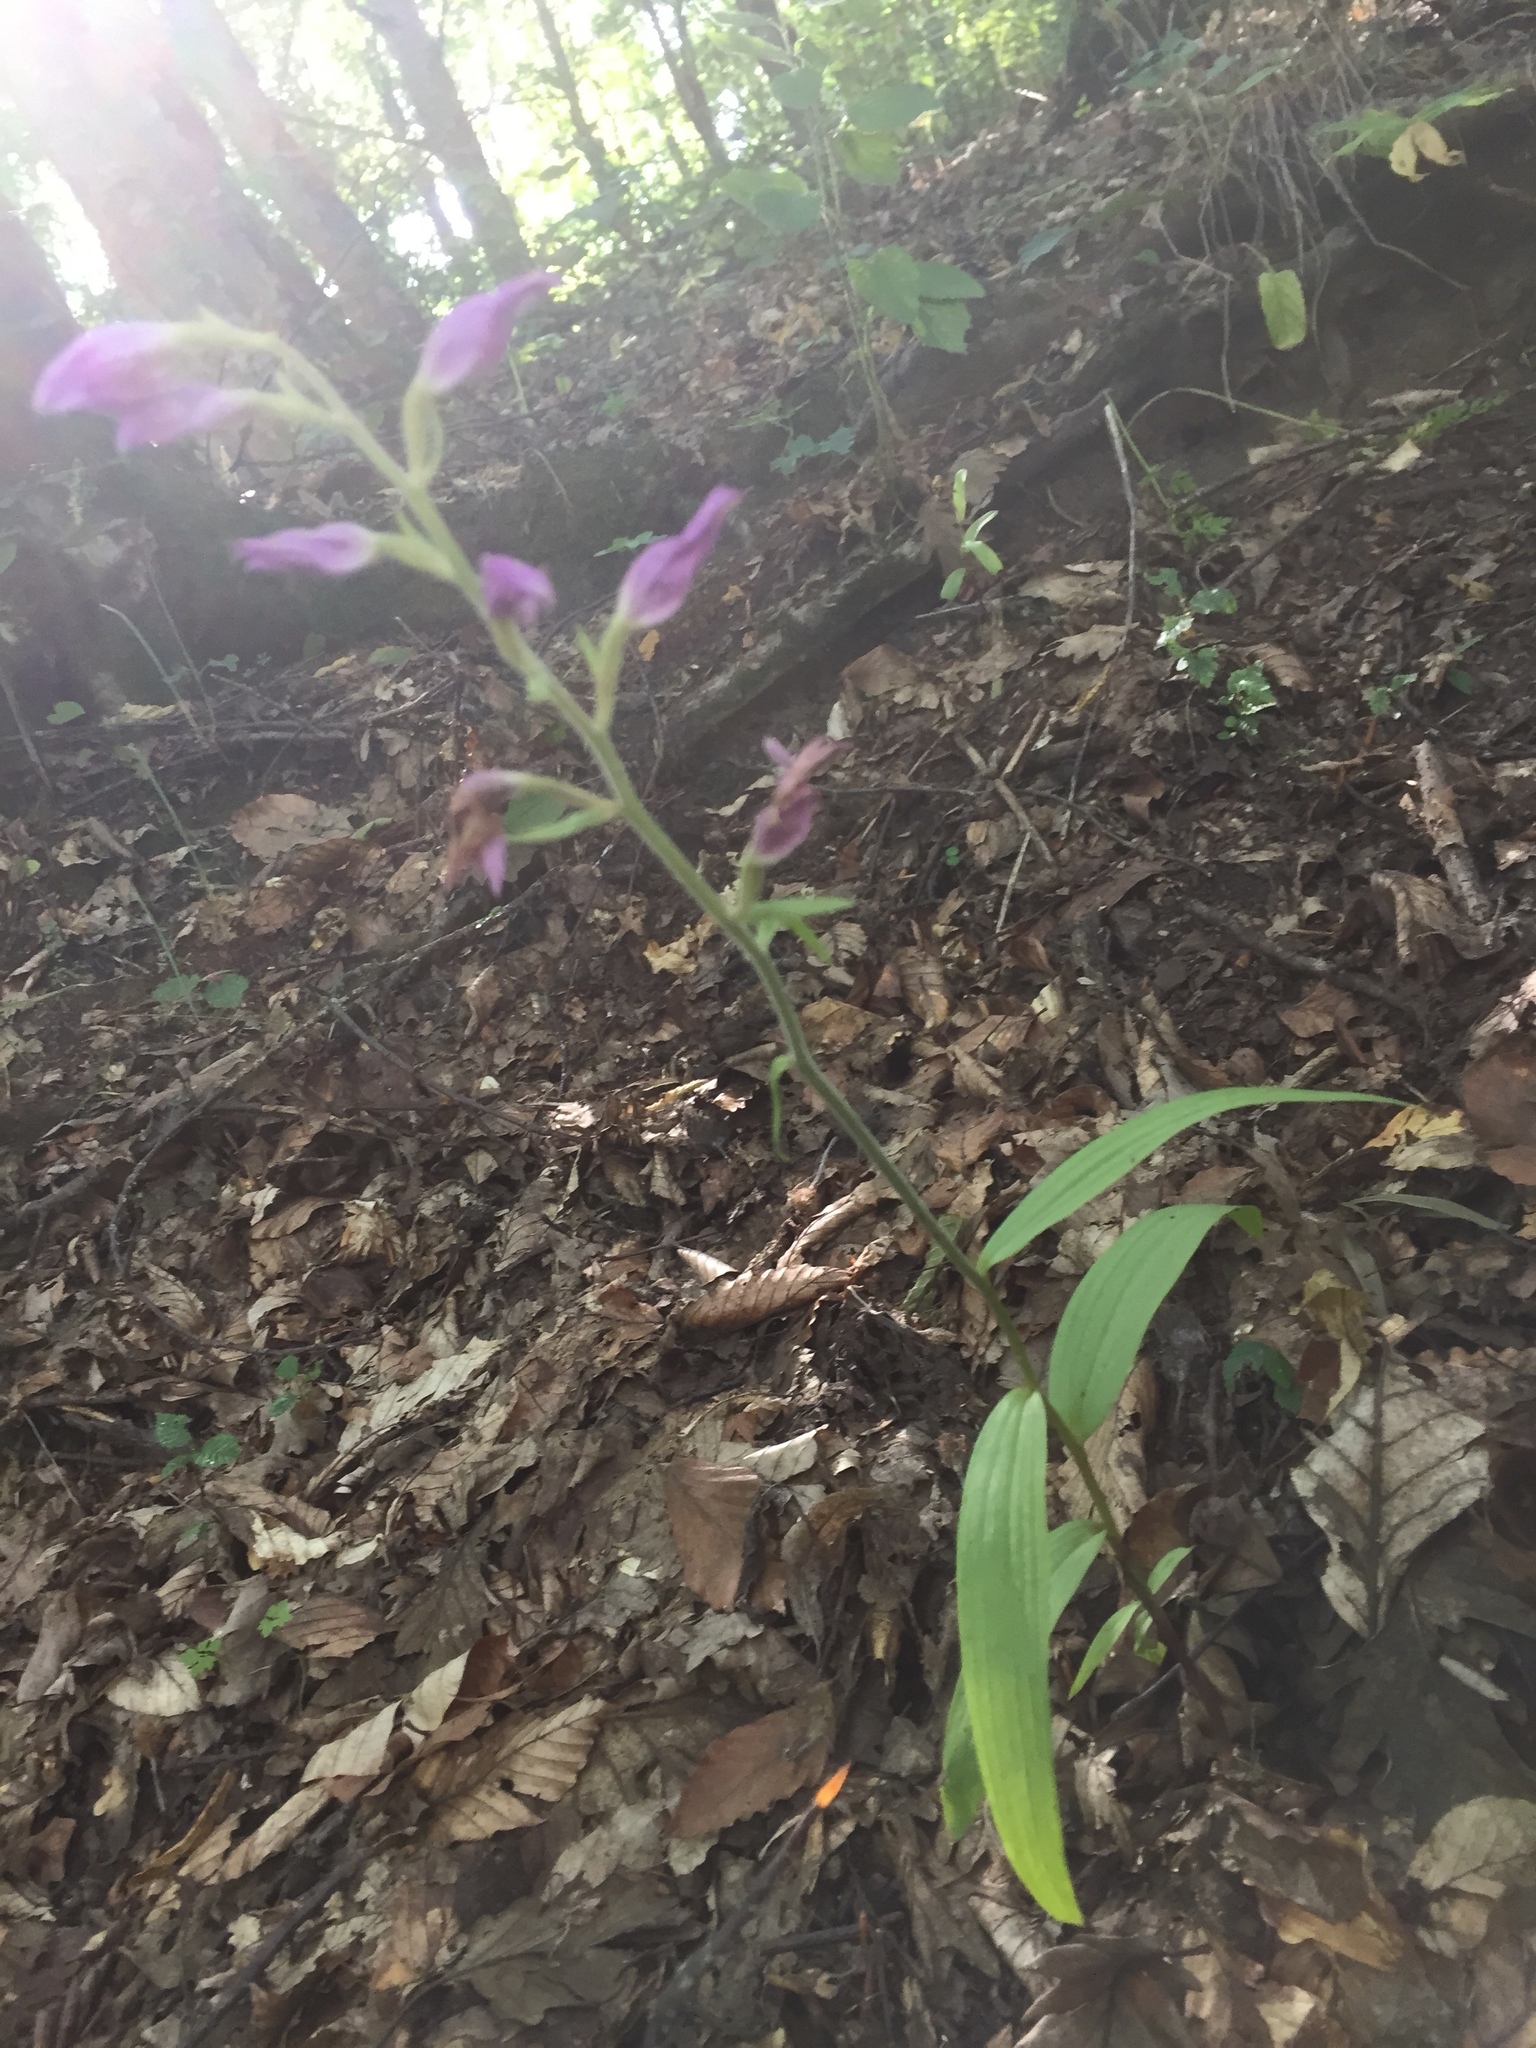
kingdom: Plantae
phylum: Tracheophyta
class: Liliopsida
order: Asparagales
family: Orchidaceae
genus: Cephalanthera
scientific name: Cephalanthera rubra
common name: Red helleborine
